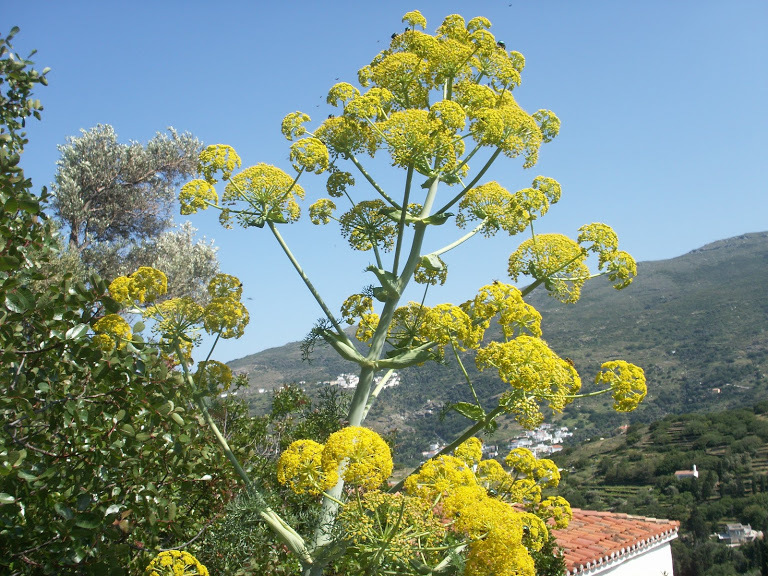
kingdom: Plantae
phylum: Tracheophyta
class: Magnoliopsida
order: Apiales
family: Apiaceae
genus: Ferula
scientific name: Ferula communis
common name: Giant fennel
